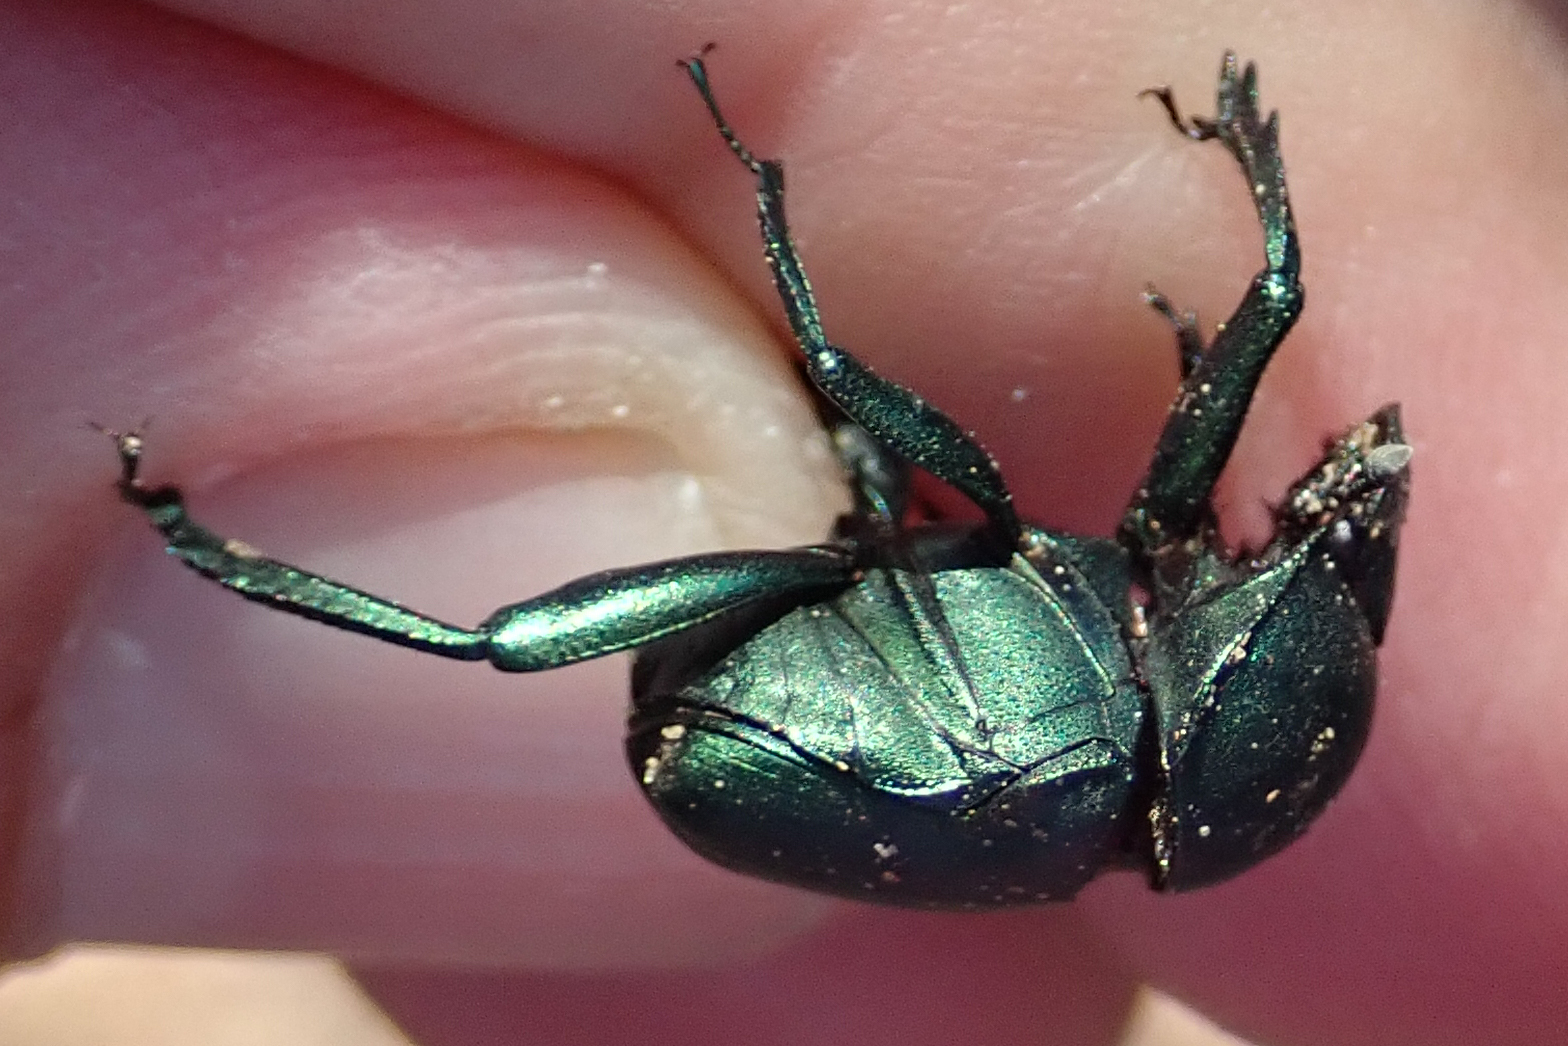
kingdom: Animalia
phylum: Arthropoda
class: Insecta
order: Coleoptera
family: Scarabaeidae
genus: Gymnopleurus
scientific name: Gymnopleurus humeralis
